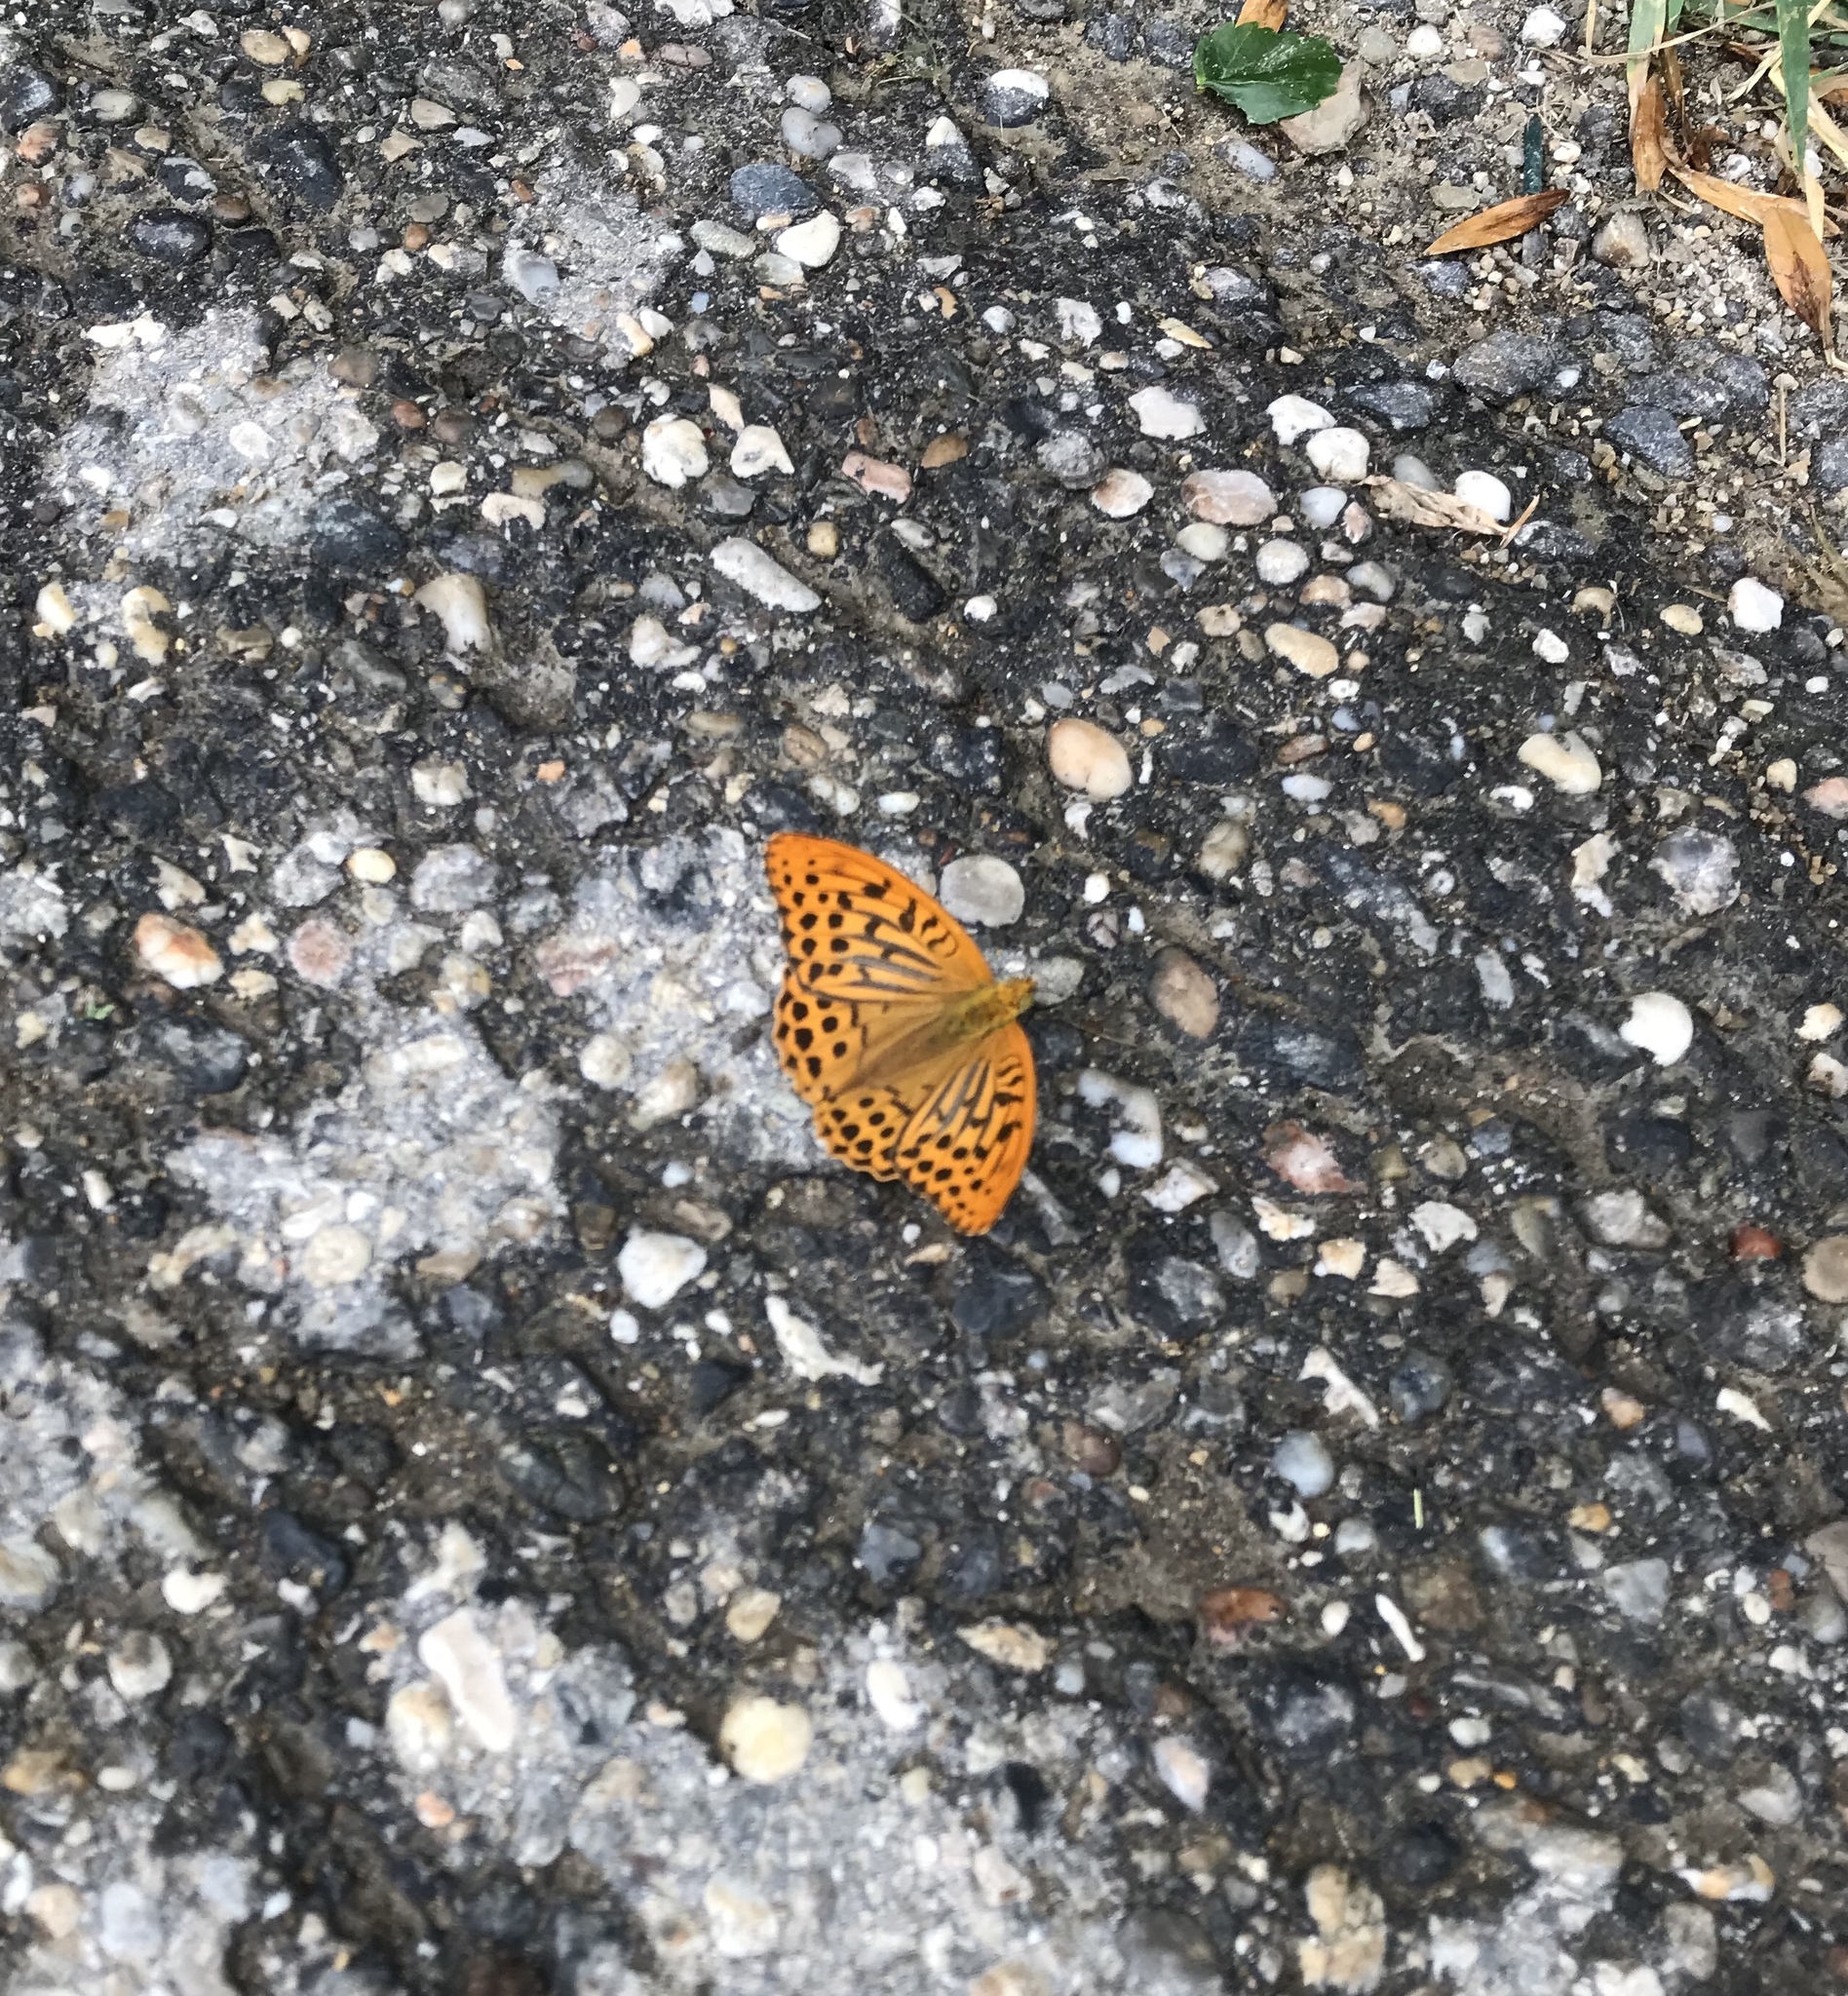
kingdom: Animalia
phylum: Arthropoda
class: Insecta
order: Lepidoptera
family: Nymphalidae
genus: Argynnis
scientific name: Argynnis paphia
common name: Silver-washed fritillary
